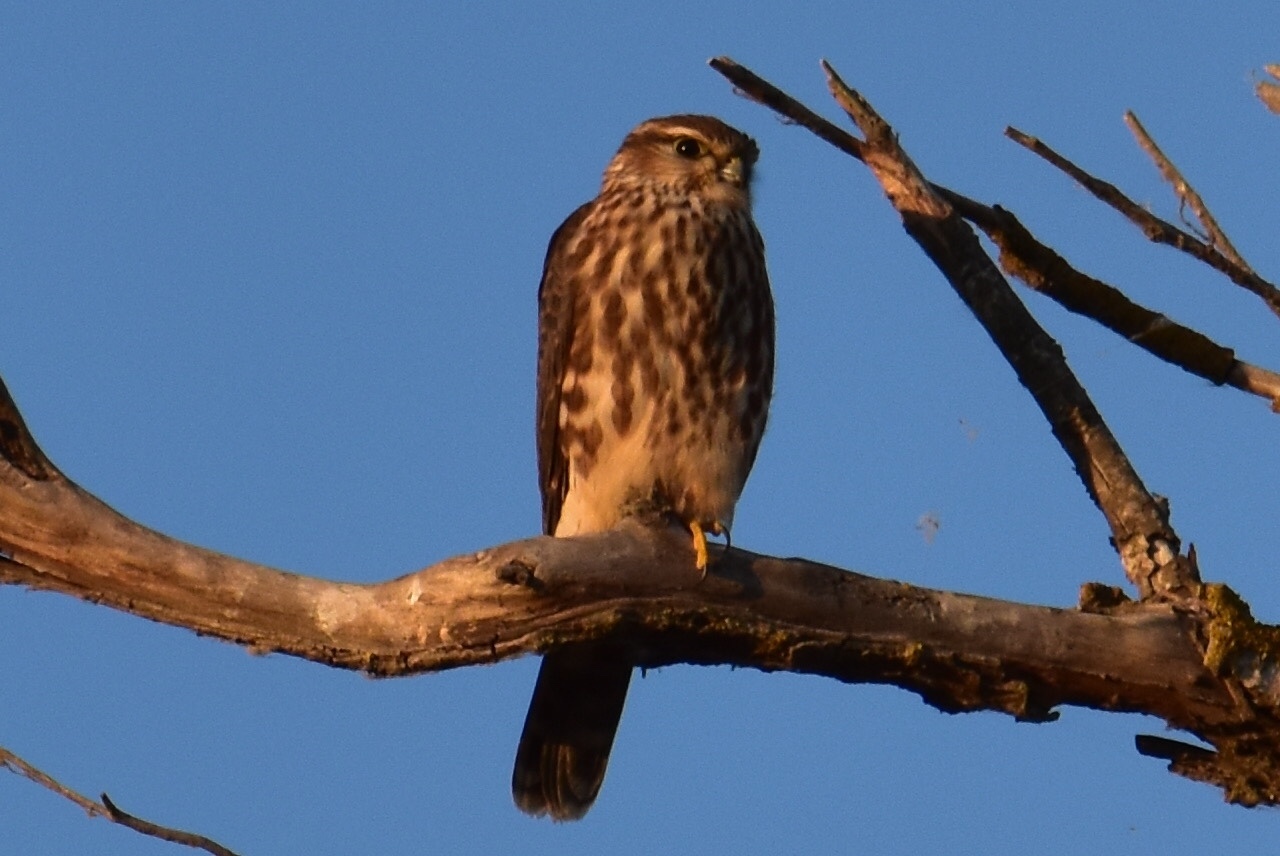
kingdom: Animalia
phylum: Chordata
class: Aves
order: Falconiformes
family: Falconidae
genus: Falco
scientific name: Falco columbarius
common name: Merlin
